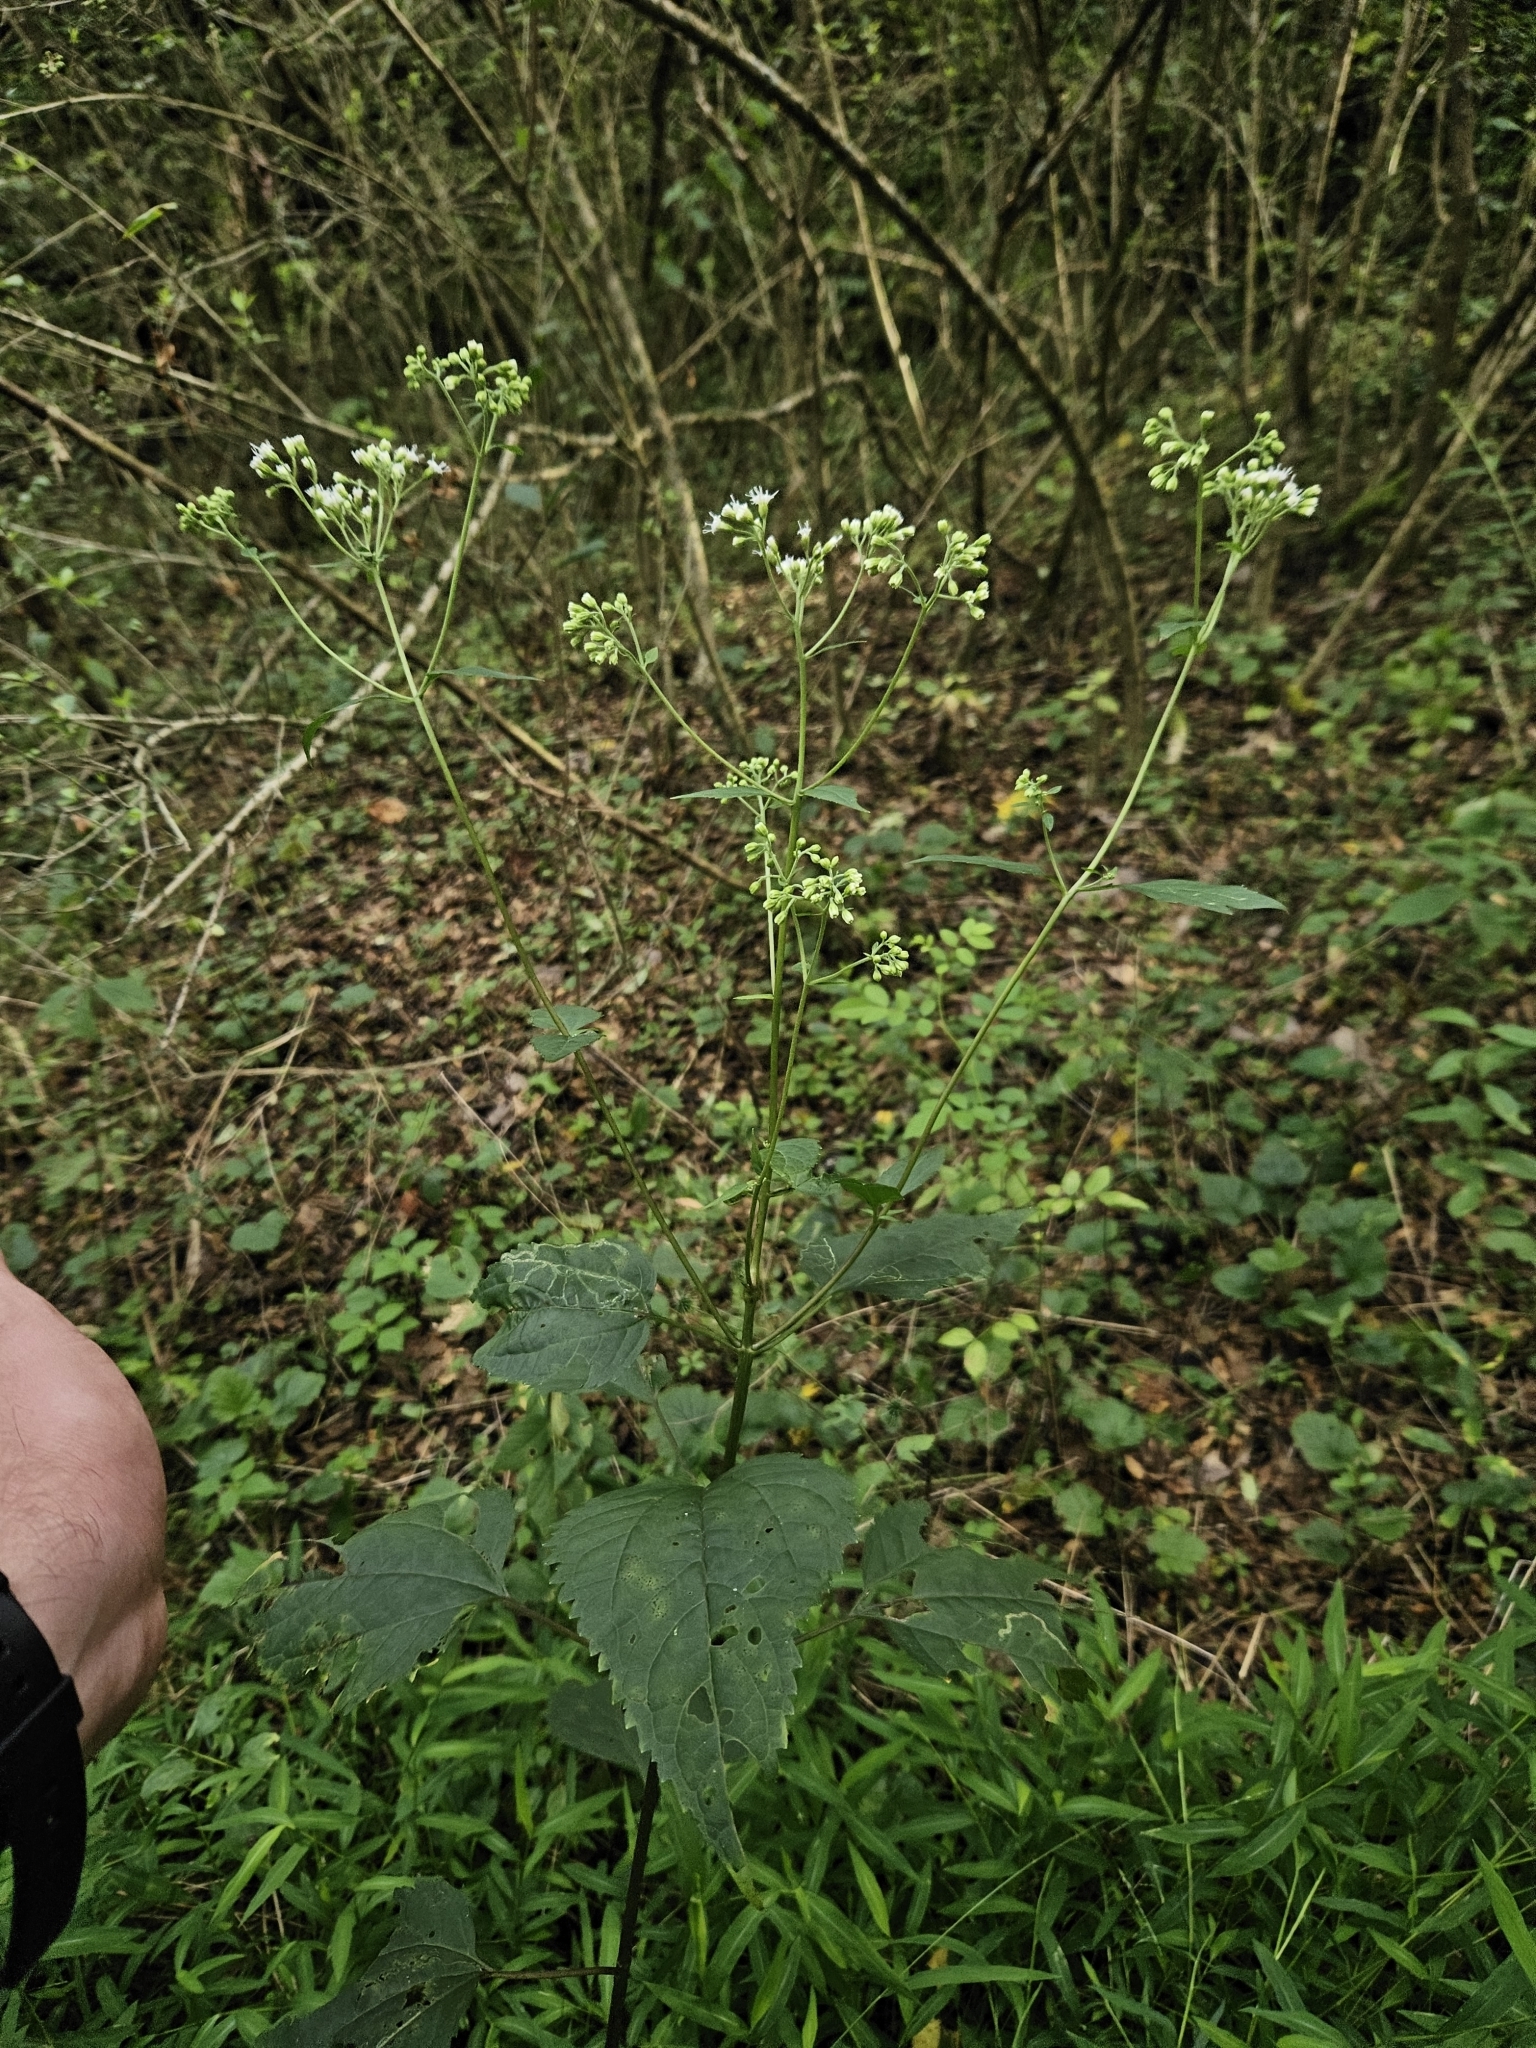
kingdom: Plantae
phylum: Tracheophyta
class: Magnoliopsida
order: Asterales
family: Asteraceae
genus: Ageratina
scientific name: Ageratina altissima
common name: White snakeroot
